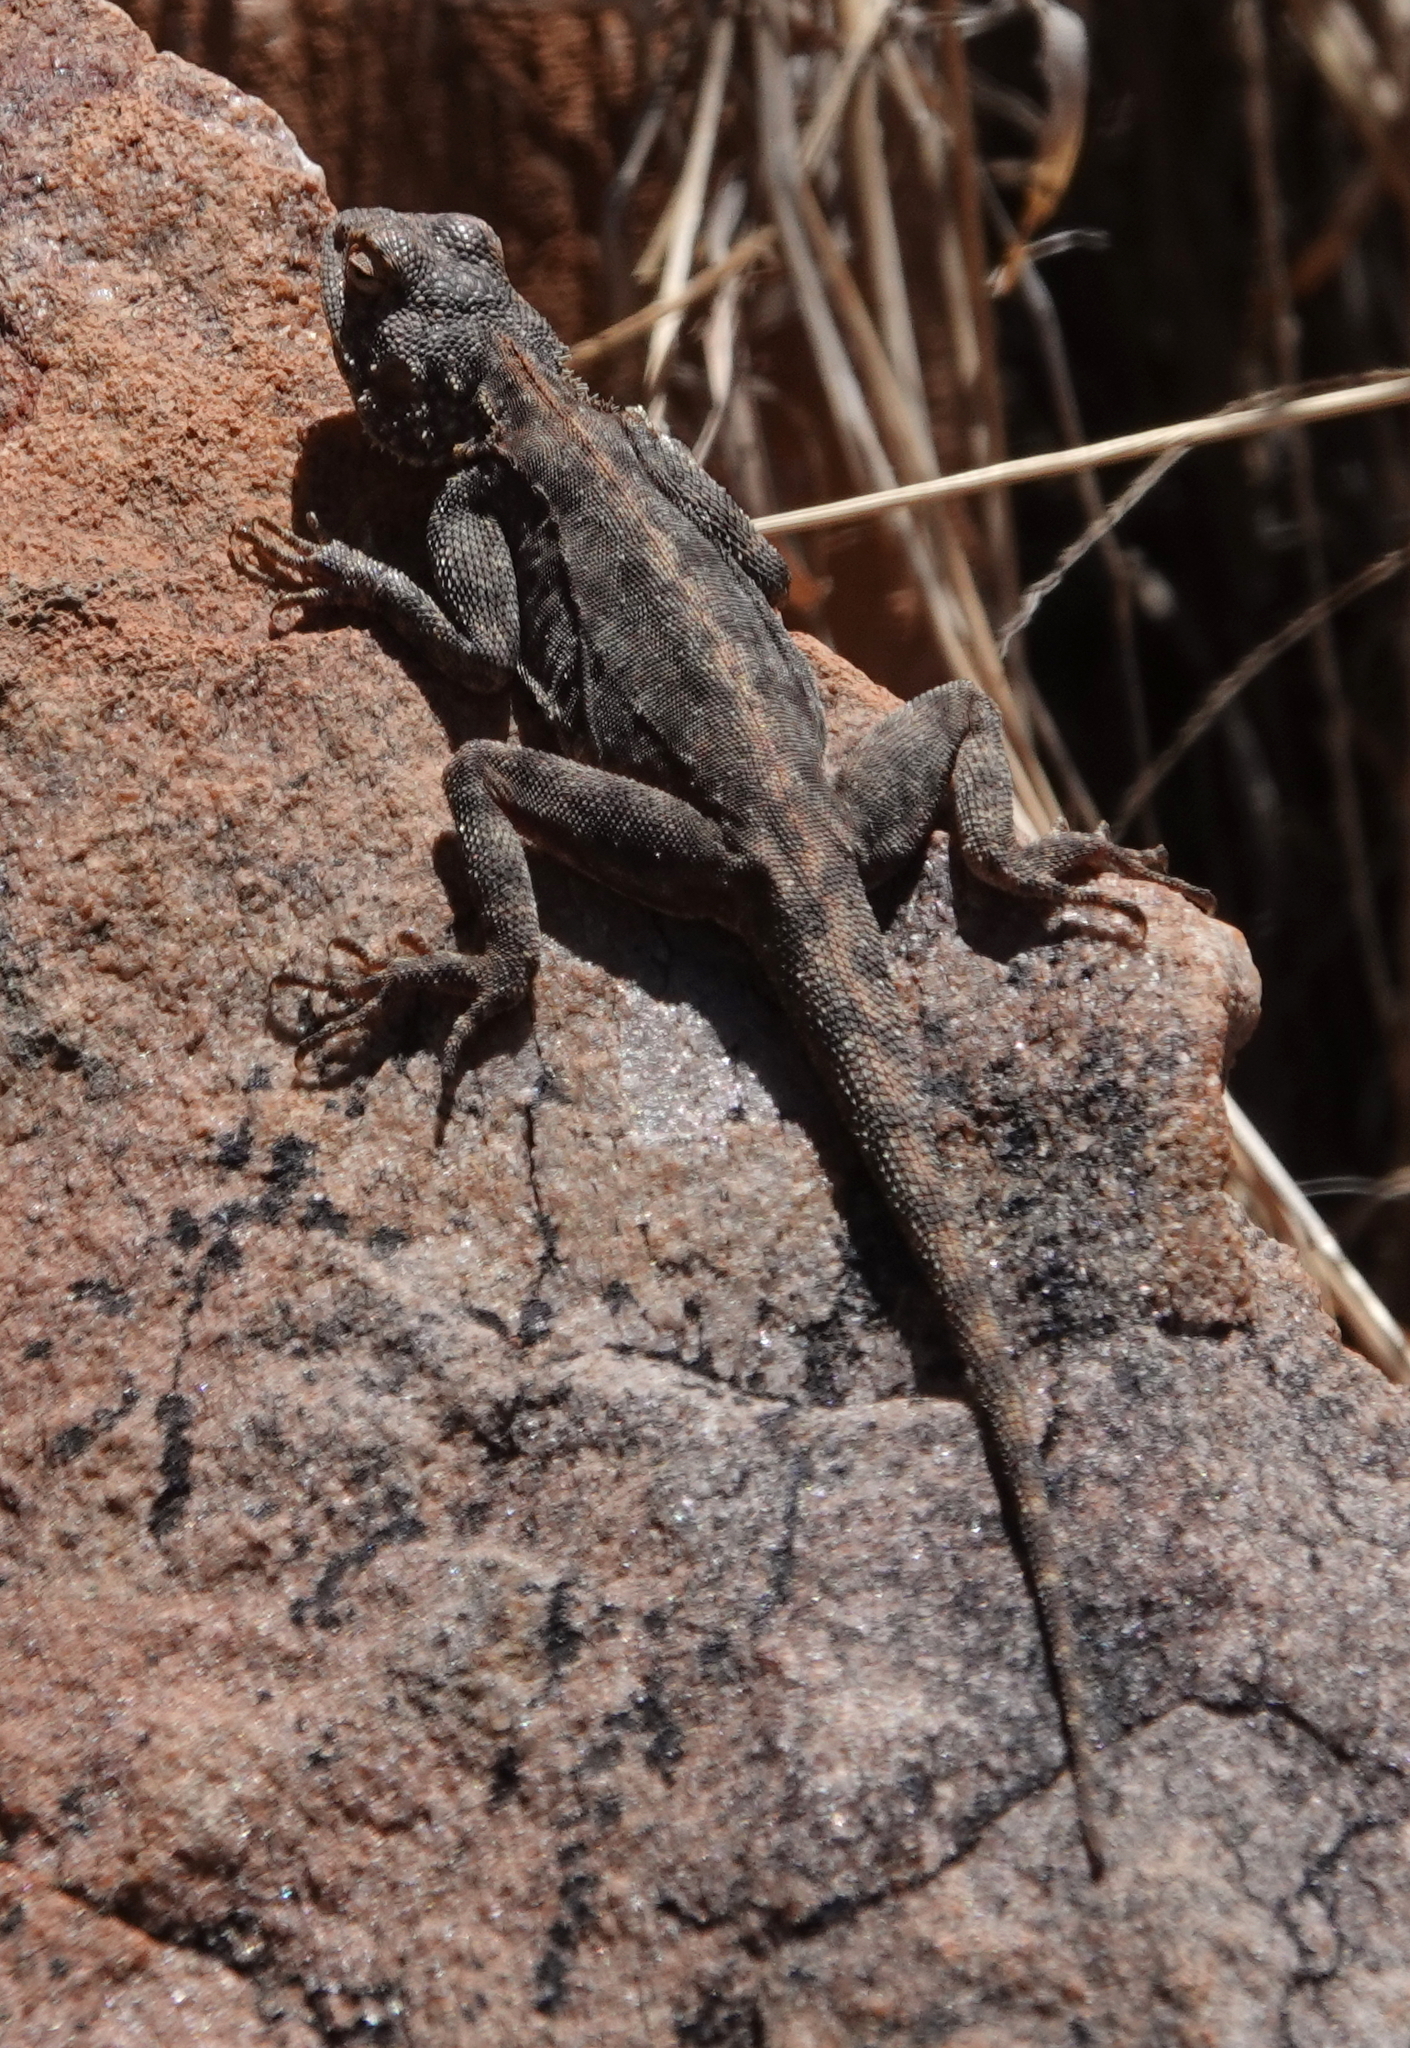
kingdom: Animalia
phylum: Chordata
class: Squamata
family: Agamidae
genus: Agama
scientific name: Agama atra
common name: Southern african rock agama
